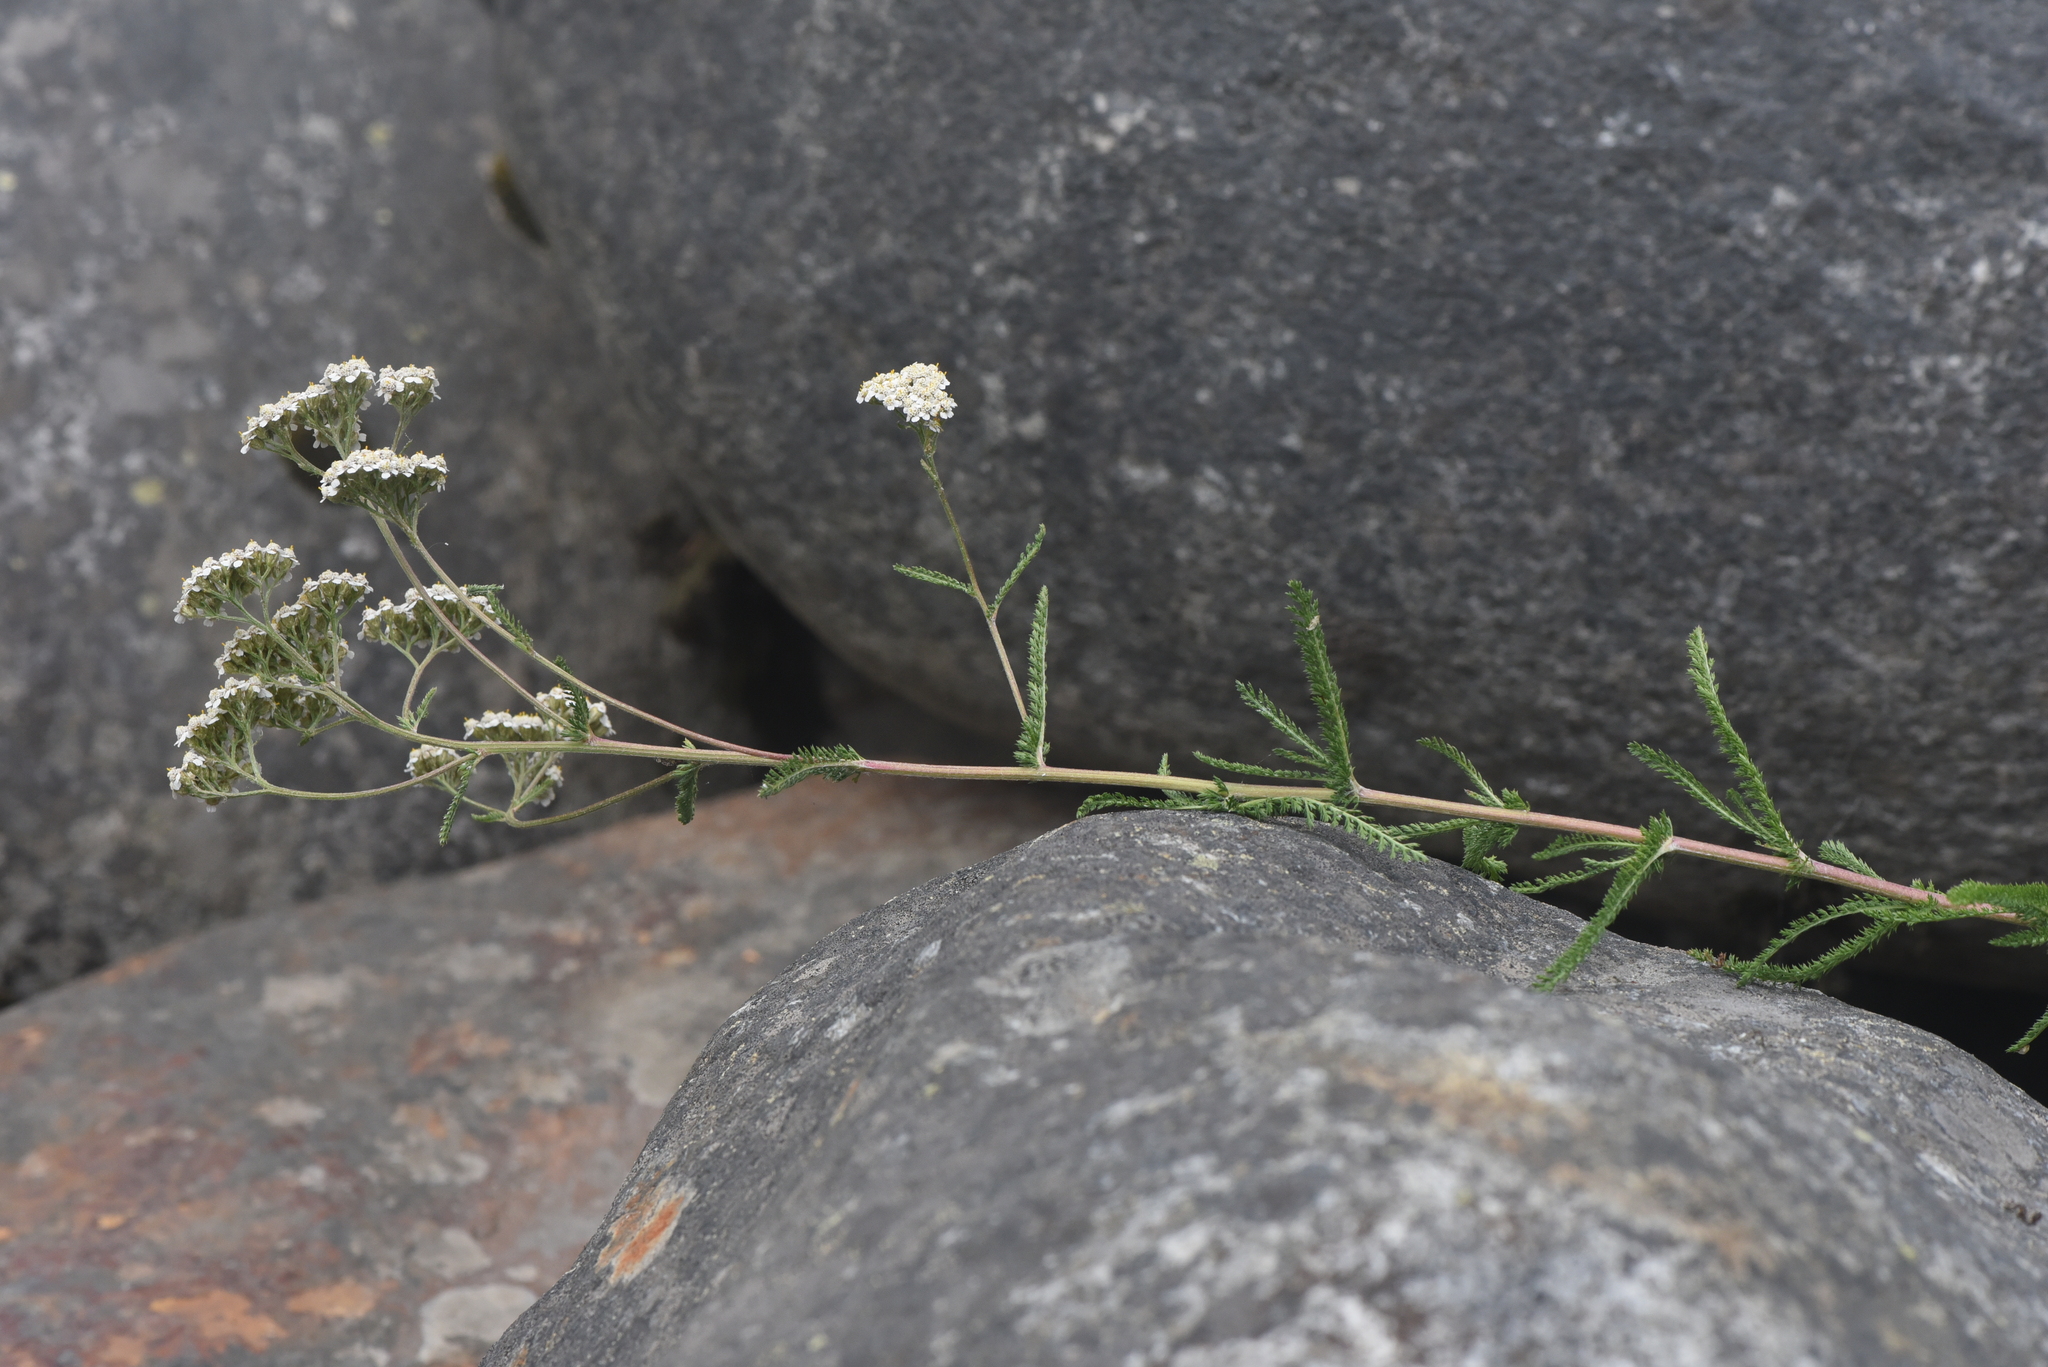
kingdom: Plantae
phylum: Tracheophyta
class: Magnoliopsida
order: Asterales
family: Asteraceae
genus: Achillea
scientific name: Achillea millefolium
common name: Yarrow
